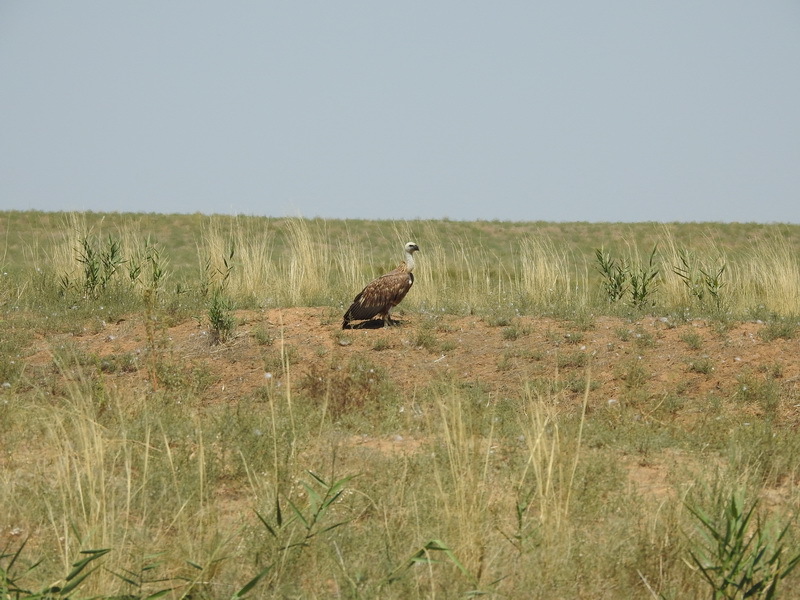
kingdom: Animalia
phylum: Chordata
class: Aves
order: Accipitriformes
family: Accipitridae
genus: Gyps
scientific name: Gyps fulvus
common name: Griffon vulture
